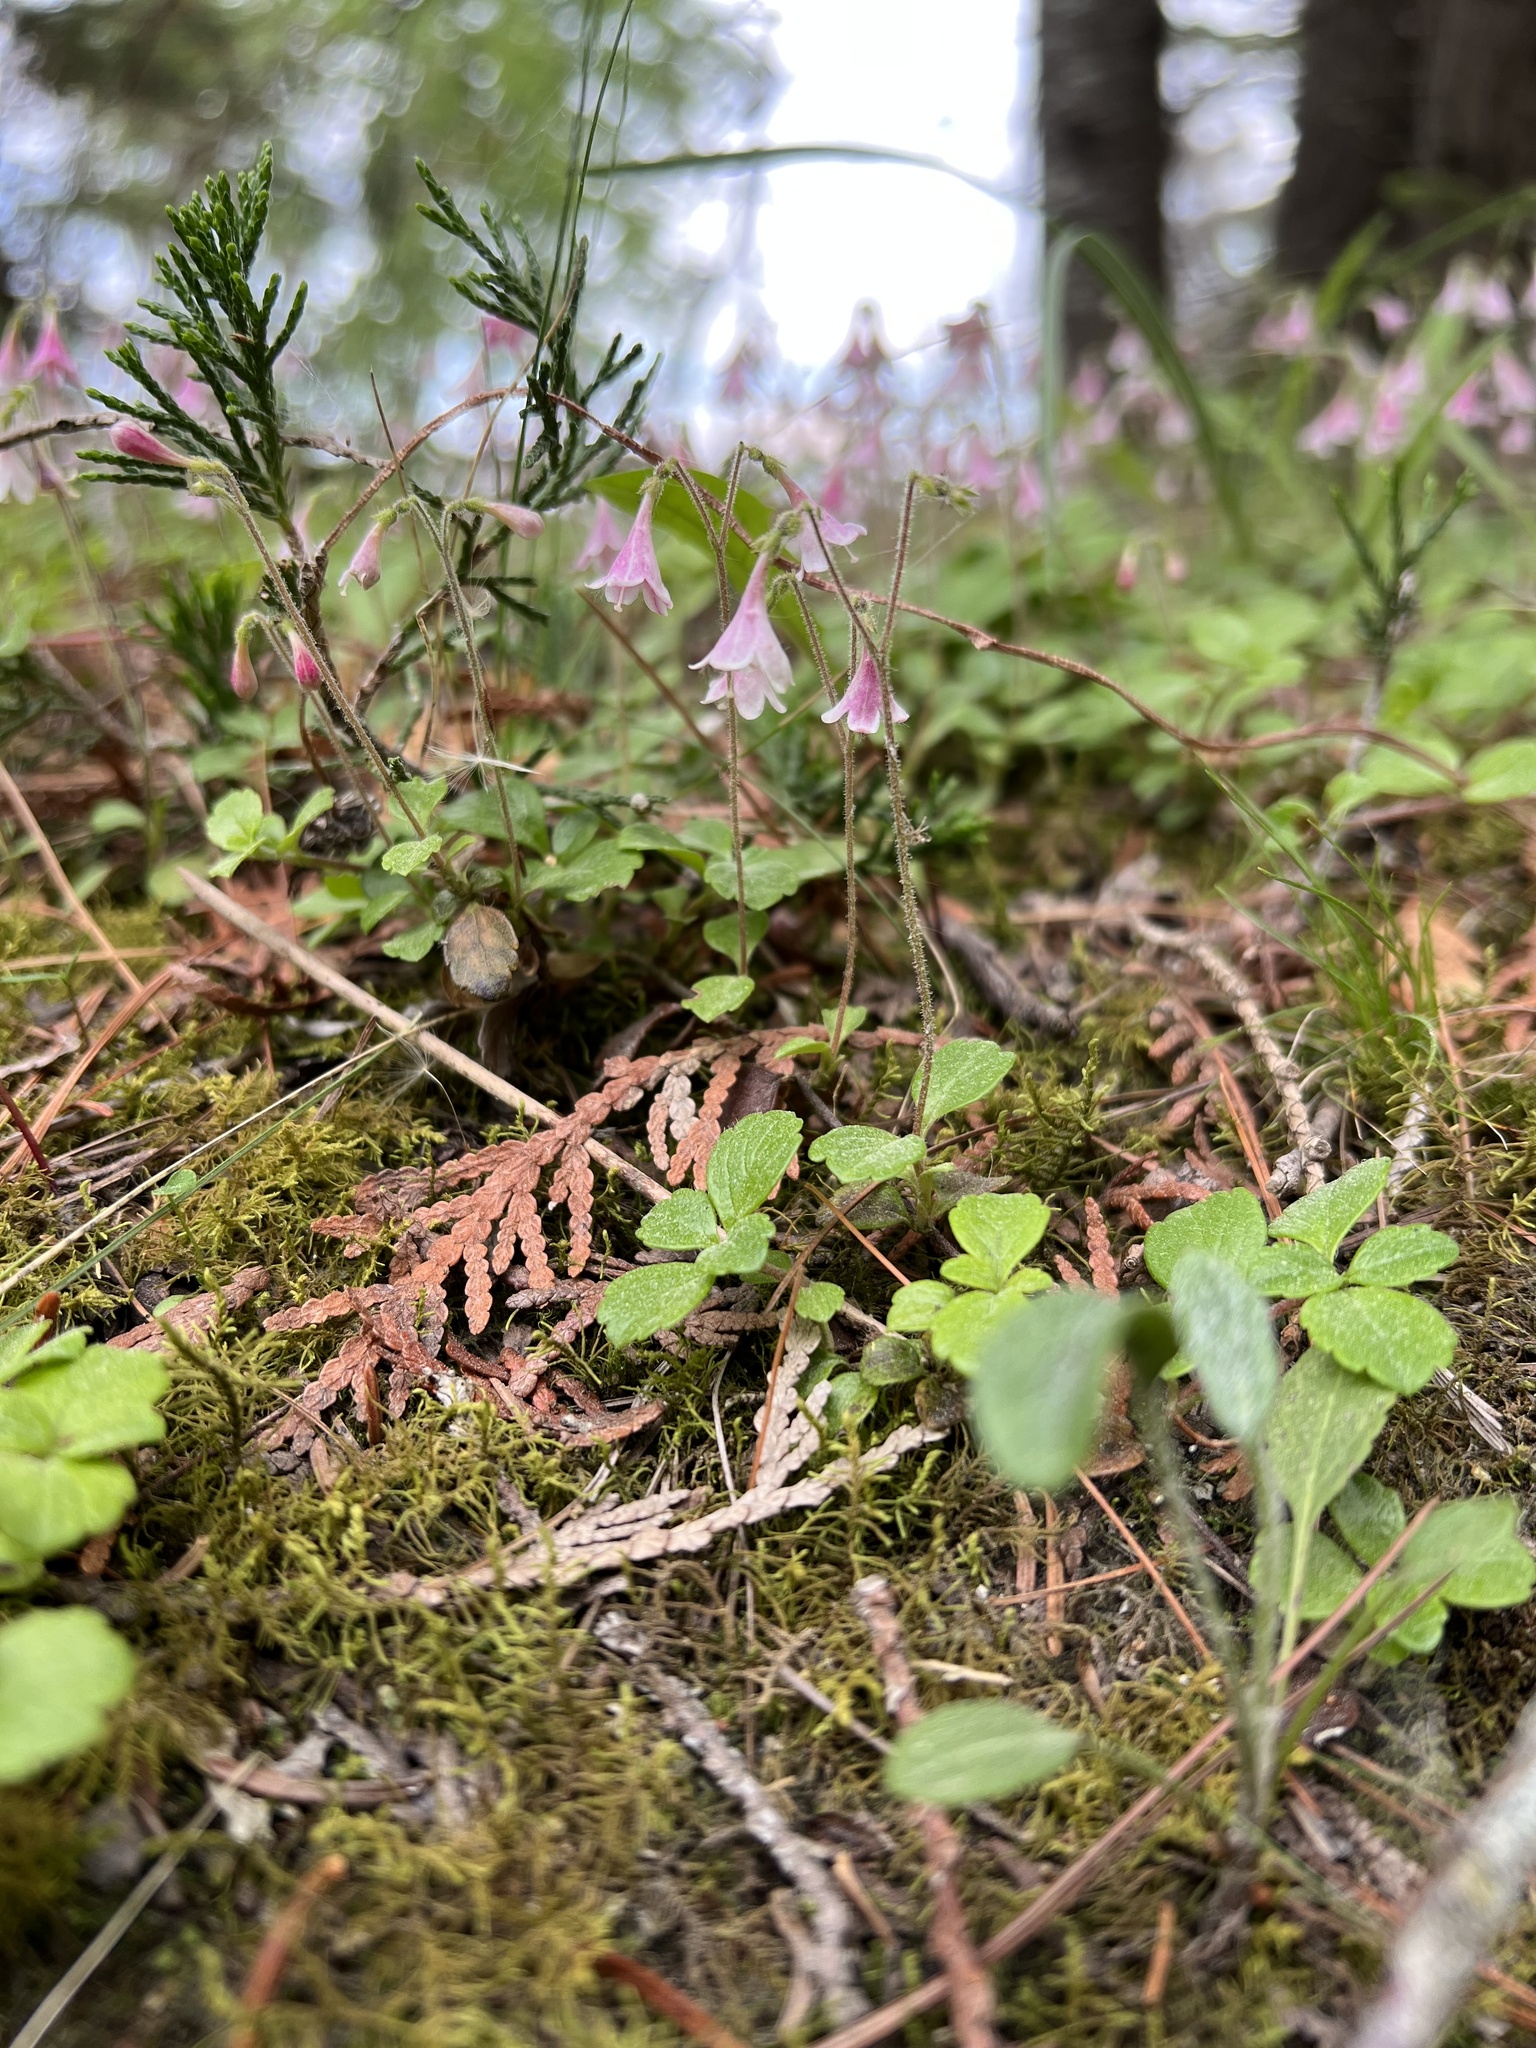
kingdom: Plantae
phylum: Tracheophyta
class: Magnoliopsida
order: Dipsacales
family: Caprifoliaceae
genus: Linnaea
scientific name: Linnaea borealis
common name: Twinflower
